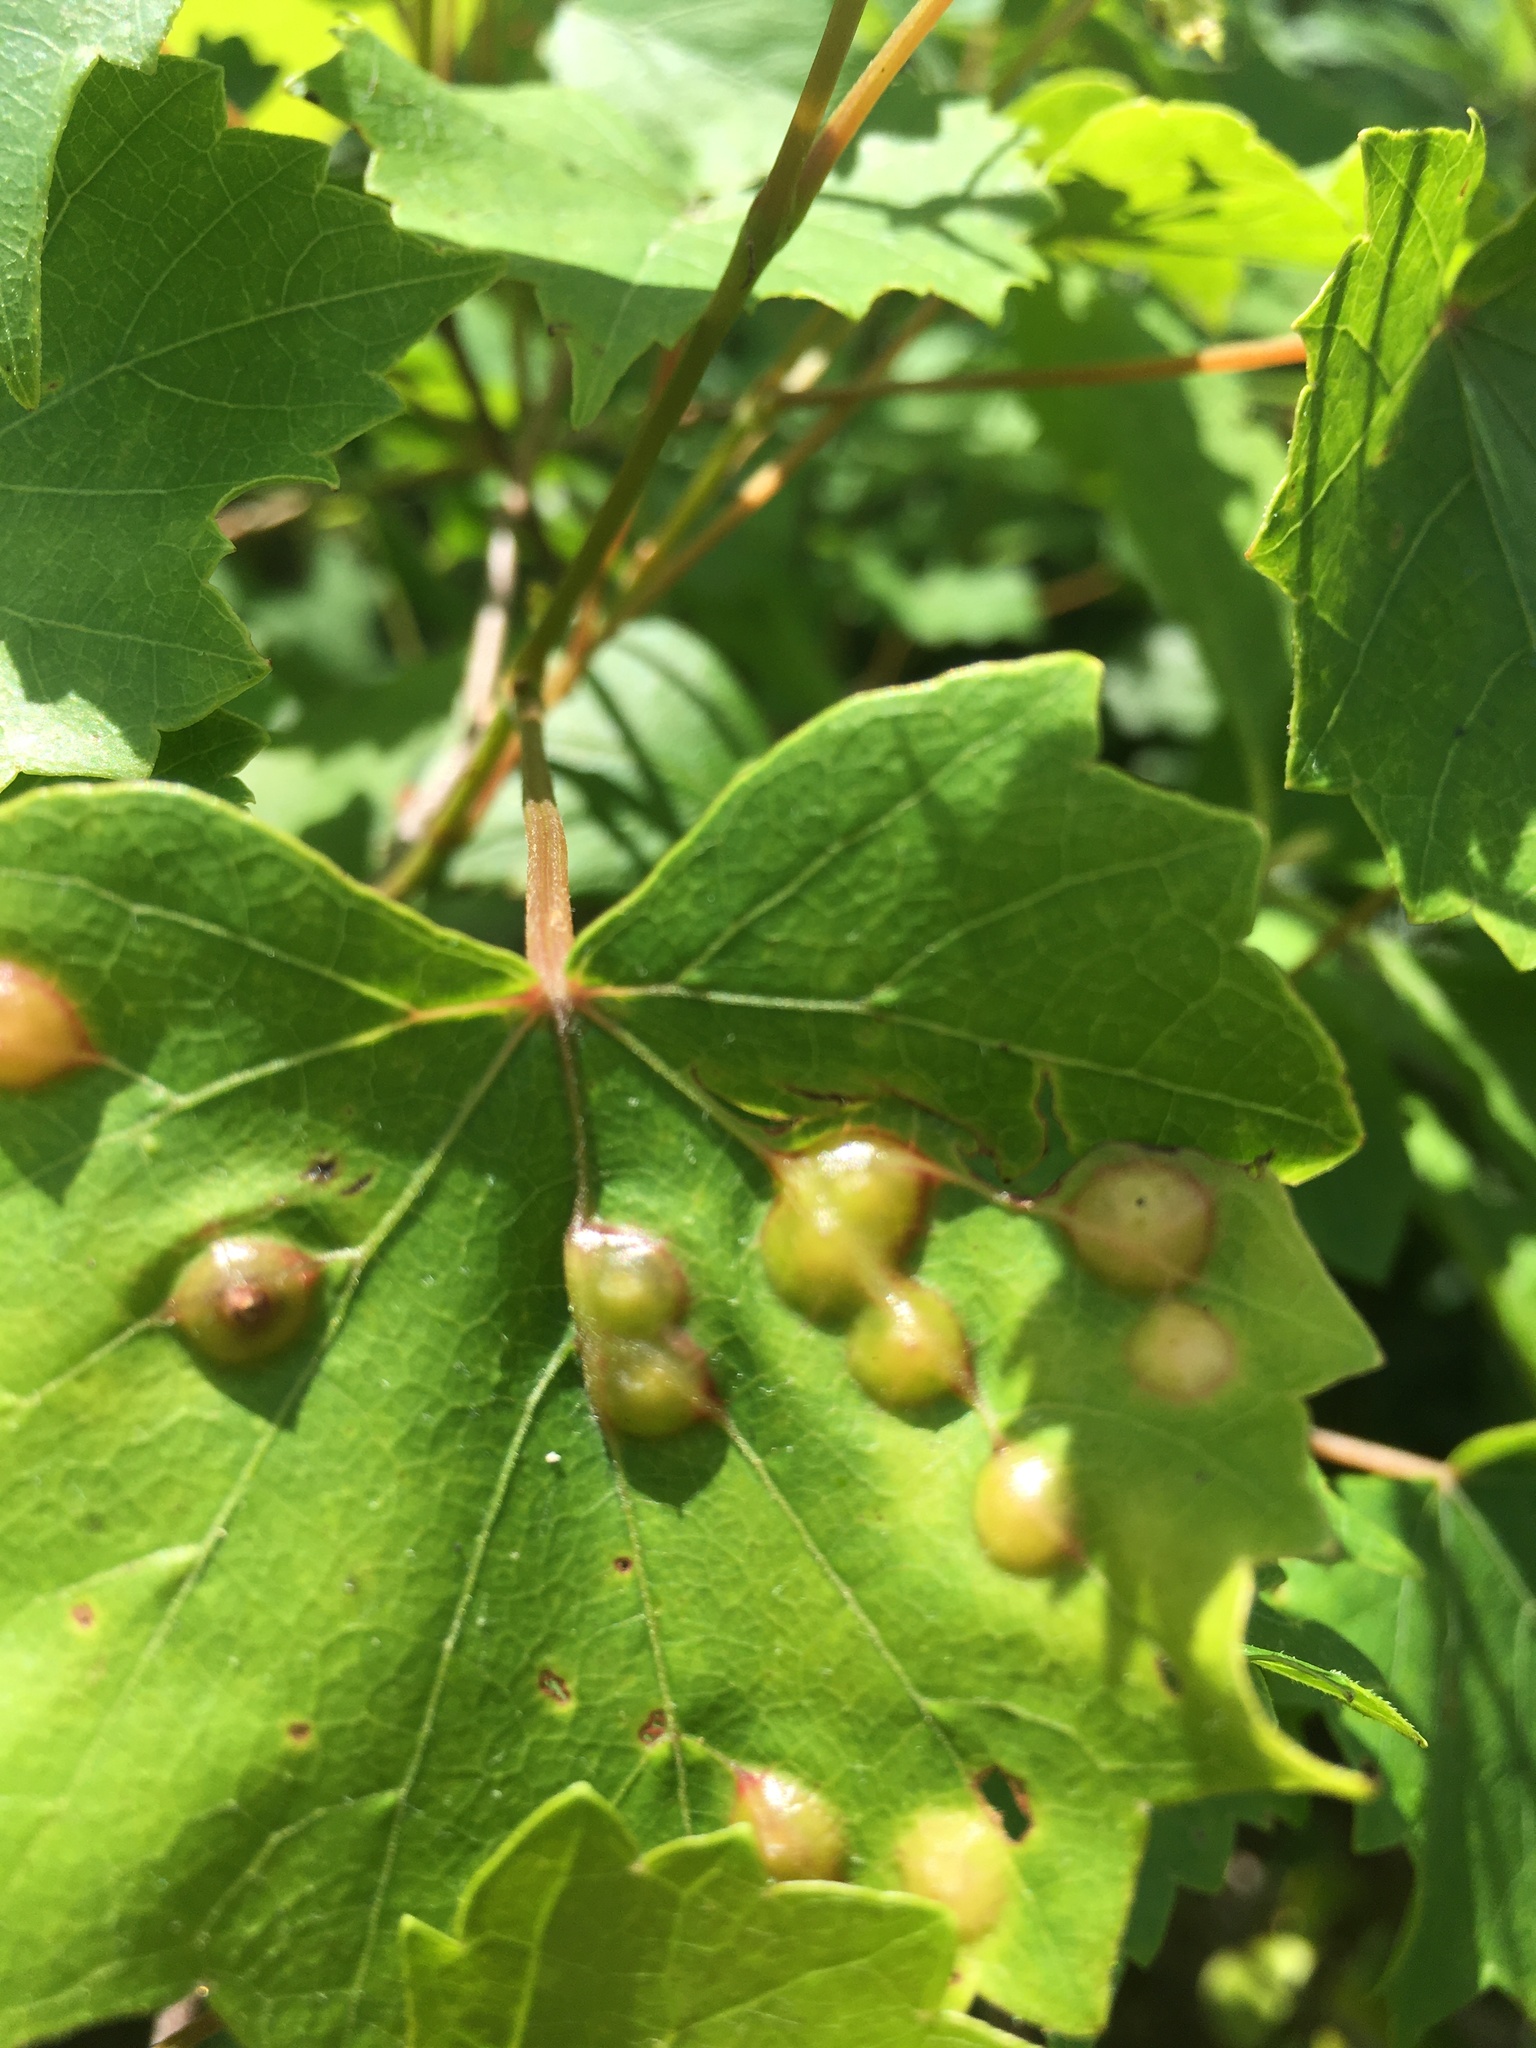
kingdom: Animalia
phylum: Arthropoda
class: Insecta
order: Diptera
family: Cecidomyiidae
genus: Vitisiella
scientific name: Vitisiella brevicauda
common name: Grape tumid gallmaker midge
